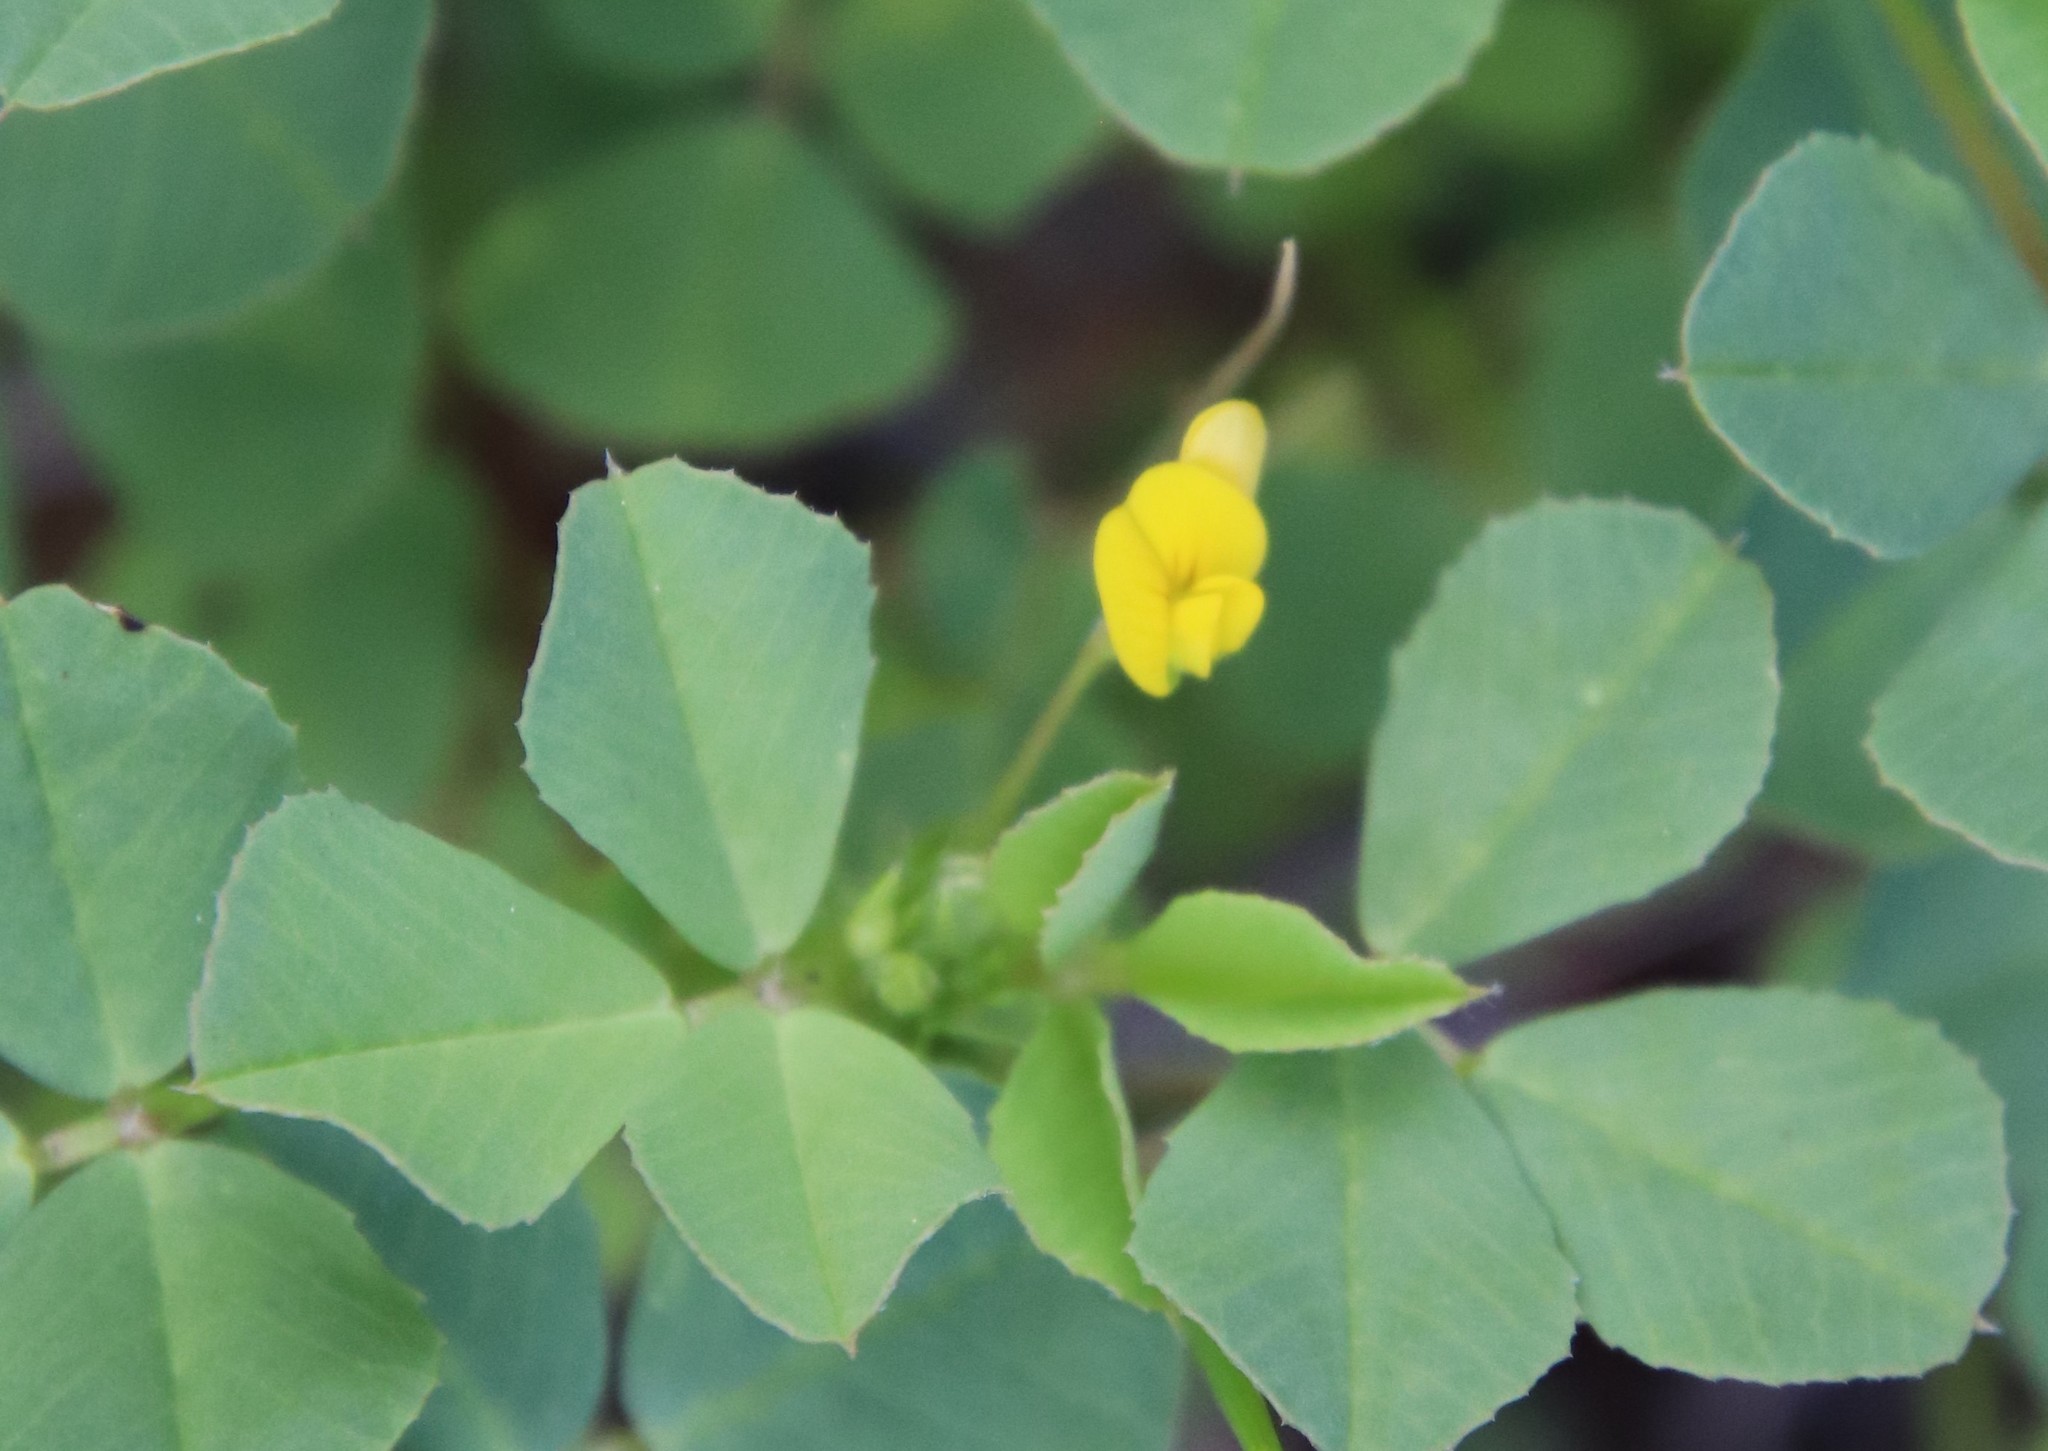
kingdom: Plantae
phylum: Tracheophyta
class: Magnoliopsida
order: Fabales
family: Fabaceae
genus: Medicago
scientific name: Medicago polymorpha
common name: Burclover
